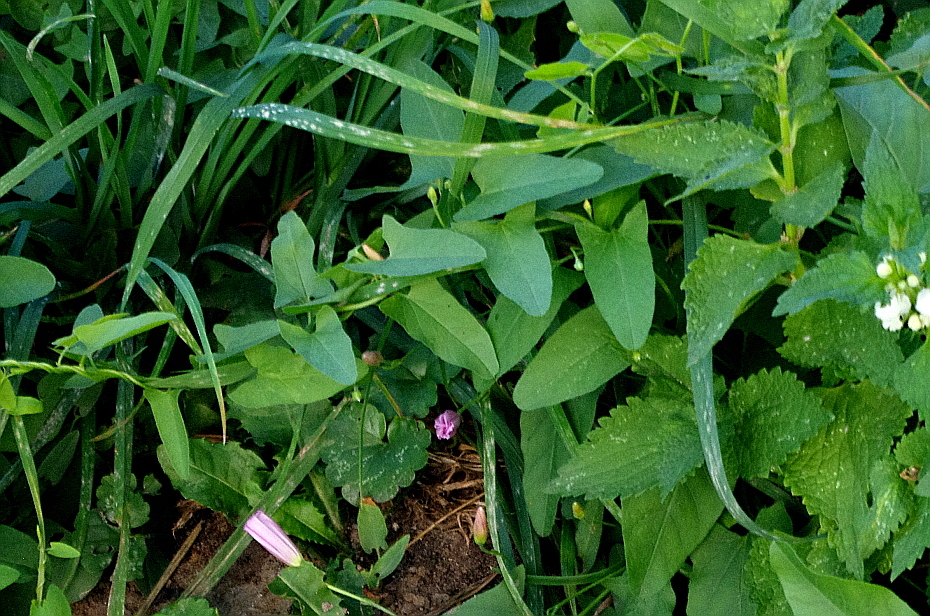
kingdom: Plantae
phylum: Tracheophyta
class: Magnoliopsida
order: Solanales
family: Convolvulaceae
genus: Convolvulus
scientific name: Convolvulus arvensis
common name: Field bindweed
